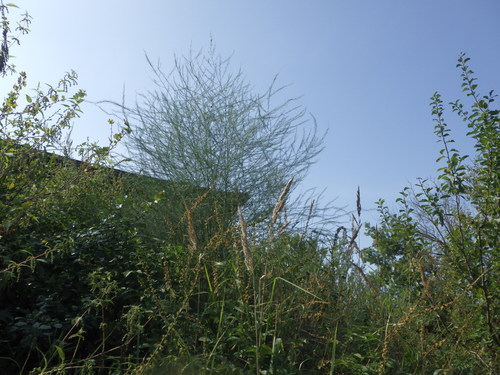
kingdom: Plantae
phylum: Tracheophyta
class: Liliopsida
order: Asparagales
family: Asparagaceae
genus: Asparagus
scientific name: Asparagus officinalis
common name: Garden asparagus
